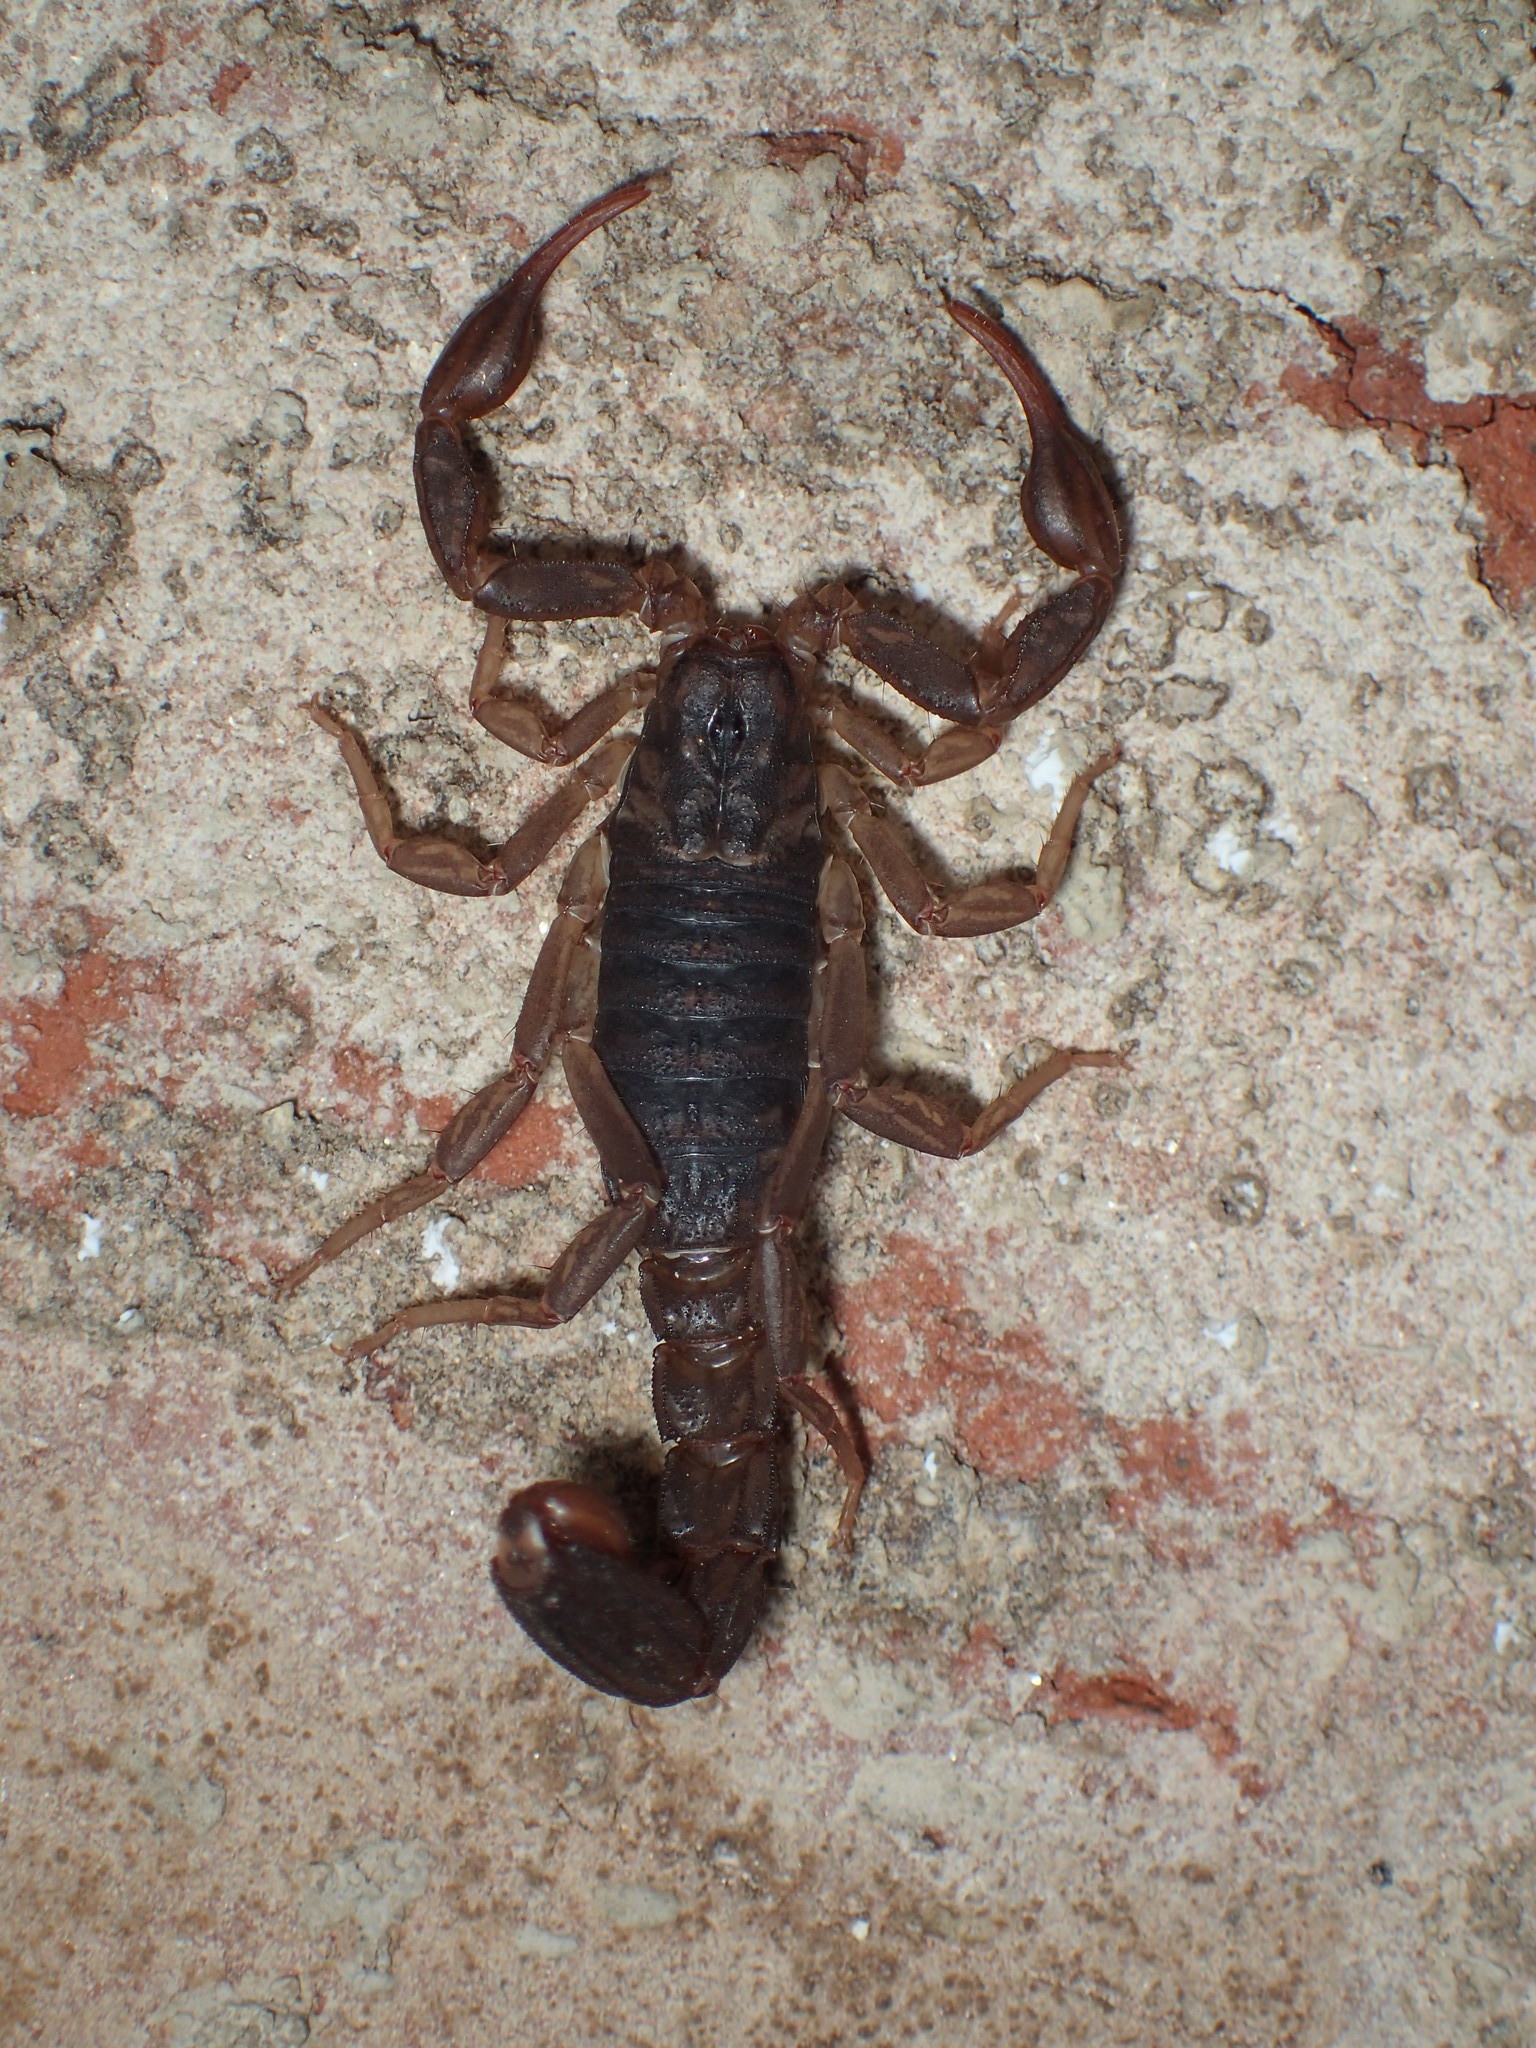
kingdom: Animalia
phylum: Arthropoda
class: Arachnida
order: Scorpiones
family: Vaejovidae
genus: Vaejovis
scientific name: Vaejovis carolinianus
